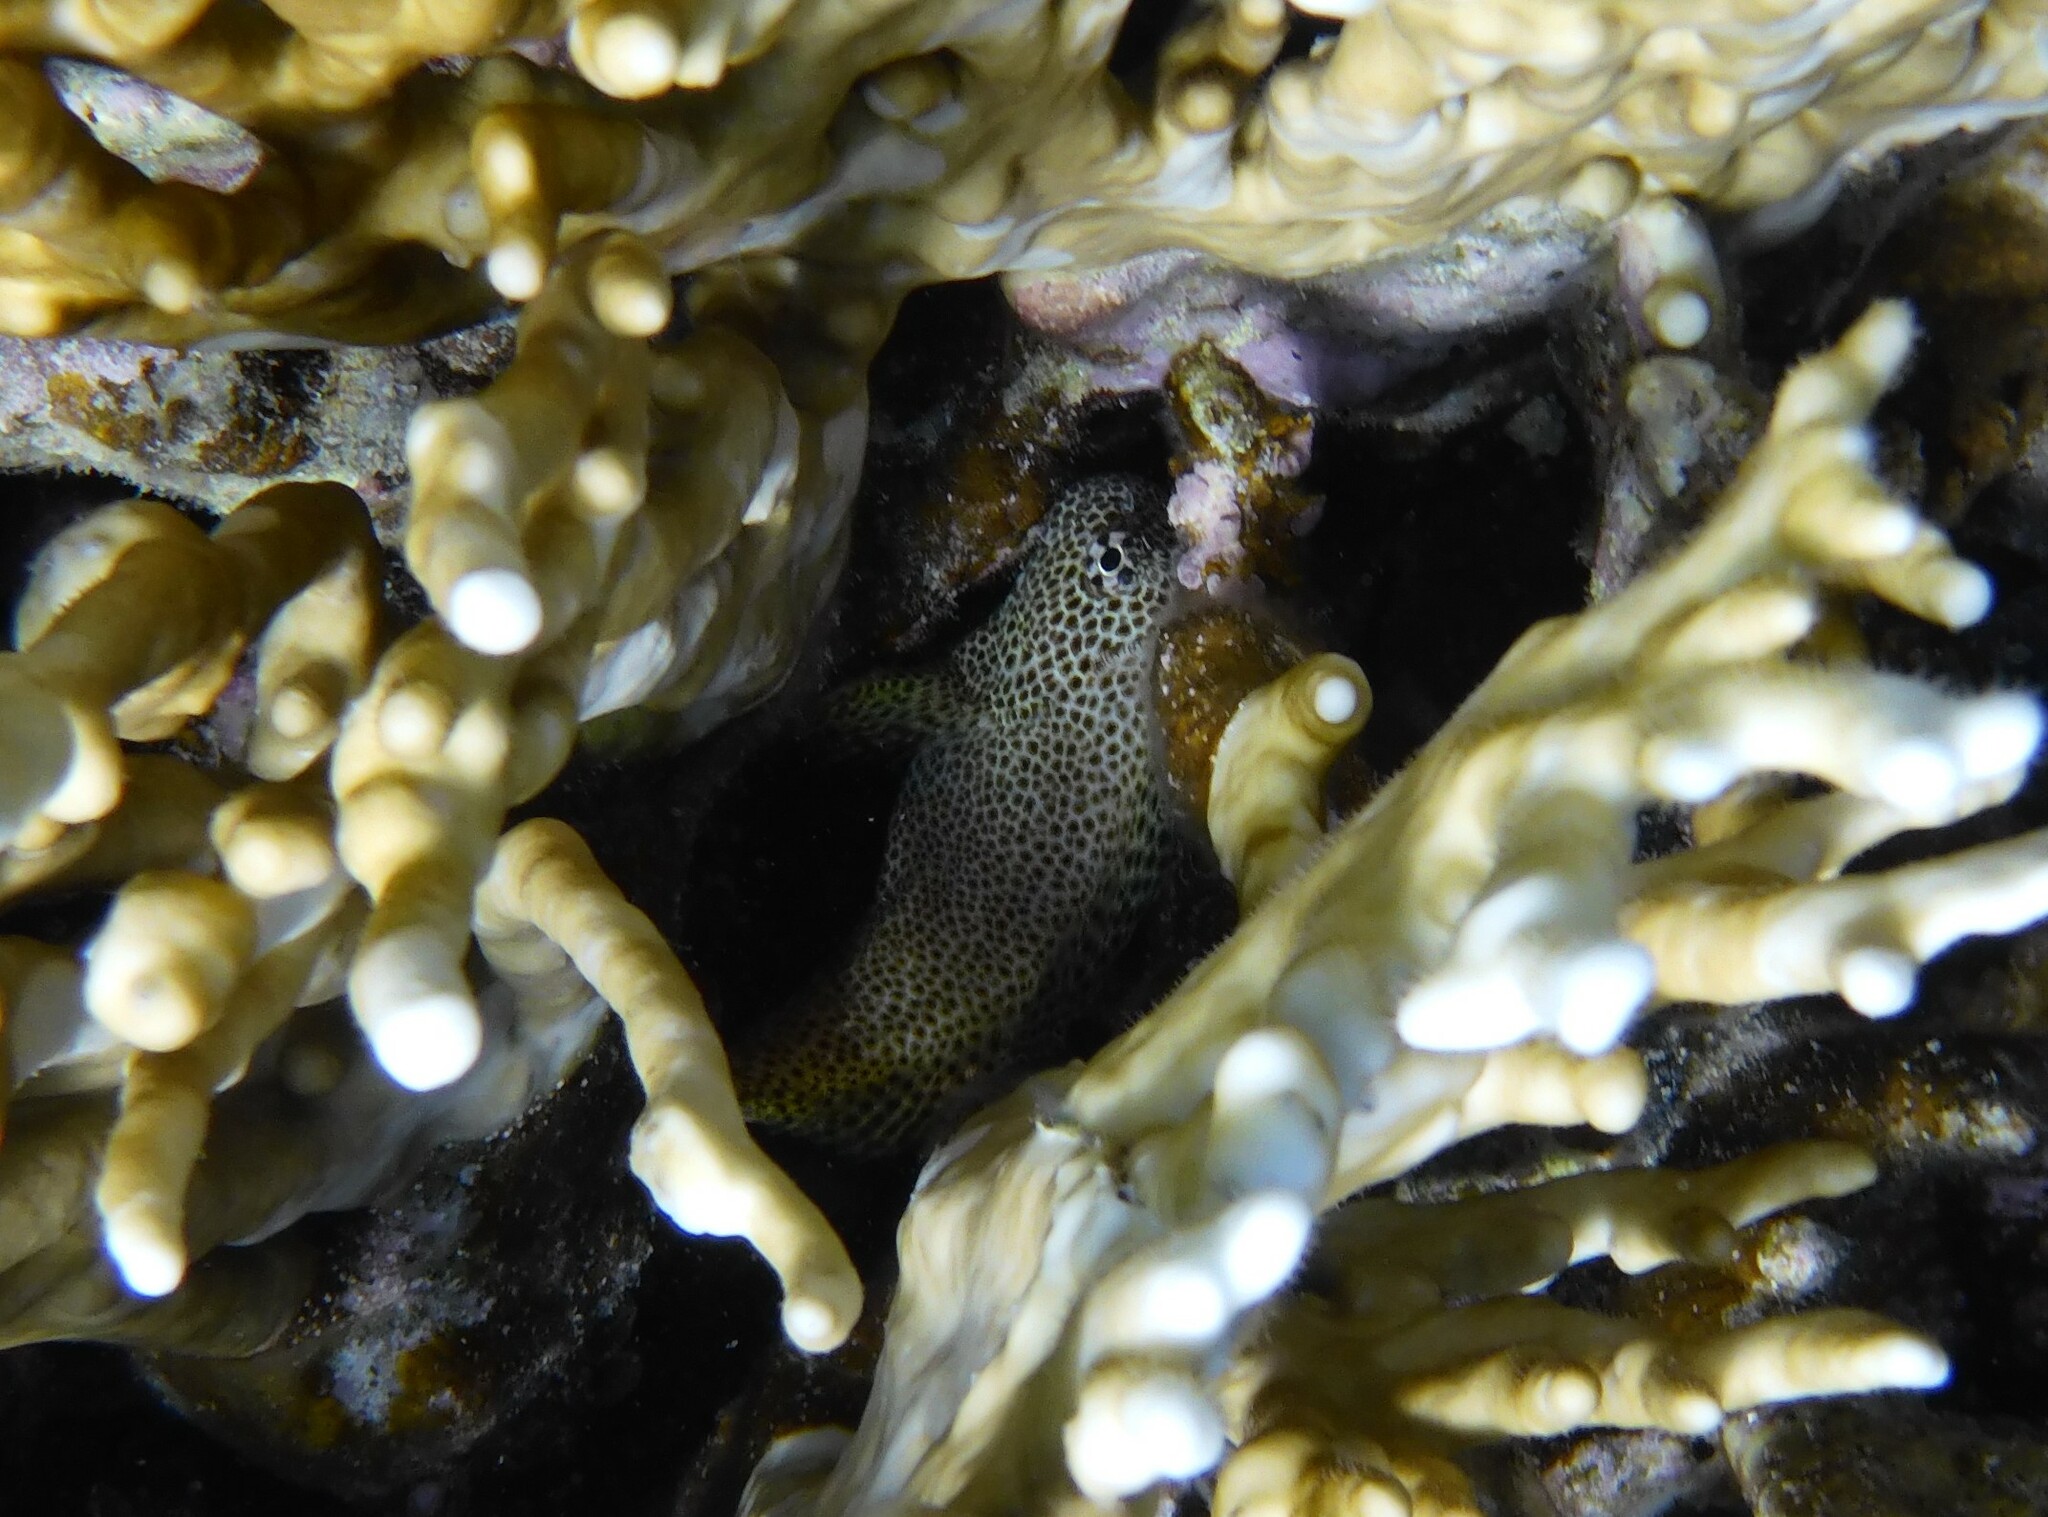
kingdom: Animalia
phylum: Chordata
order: Perciformes
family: Blenniidae
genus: Exallias
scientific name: Exallias brevis
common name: Leopard blenny
